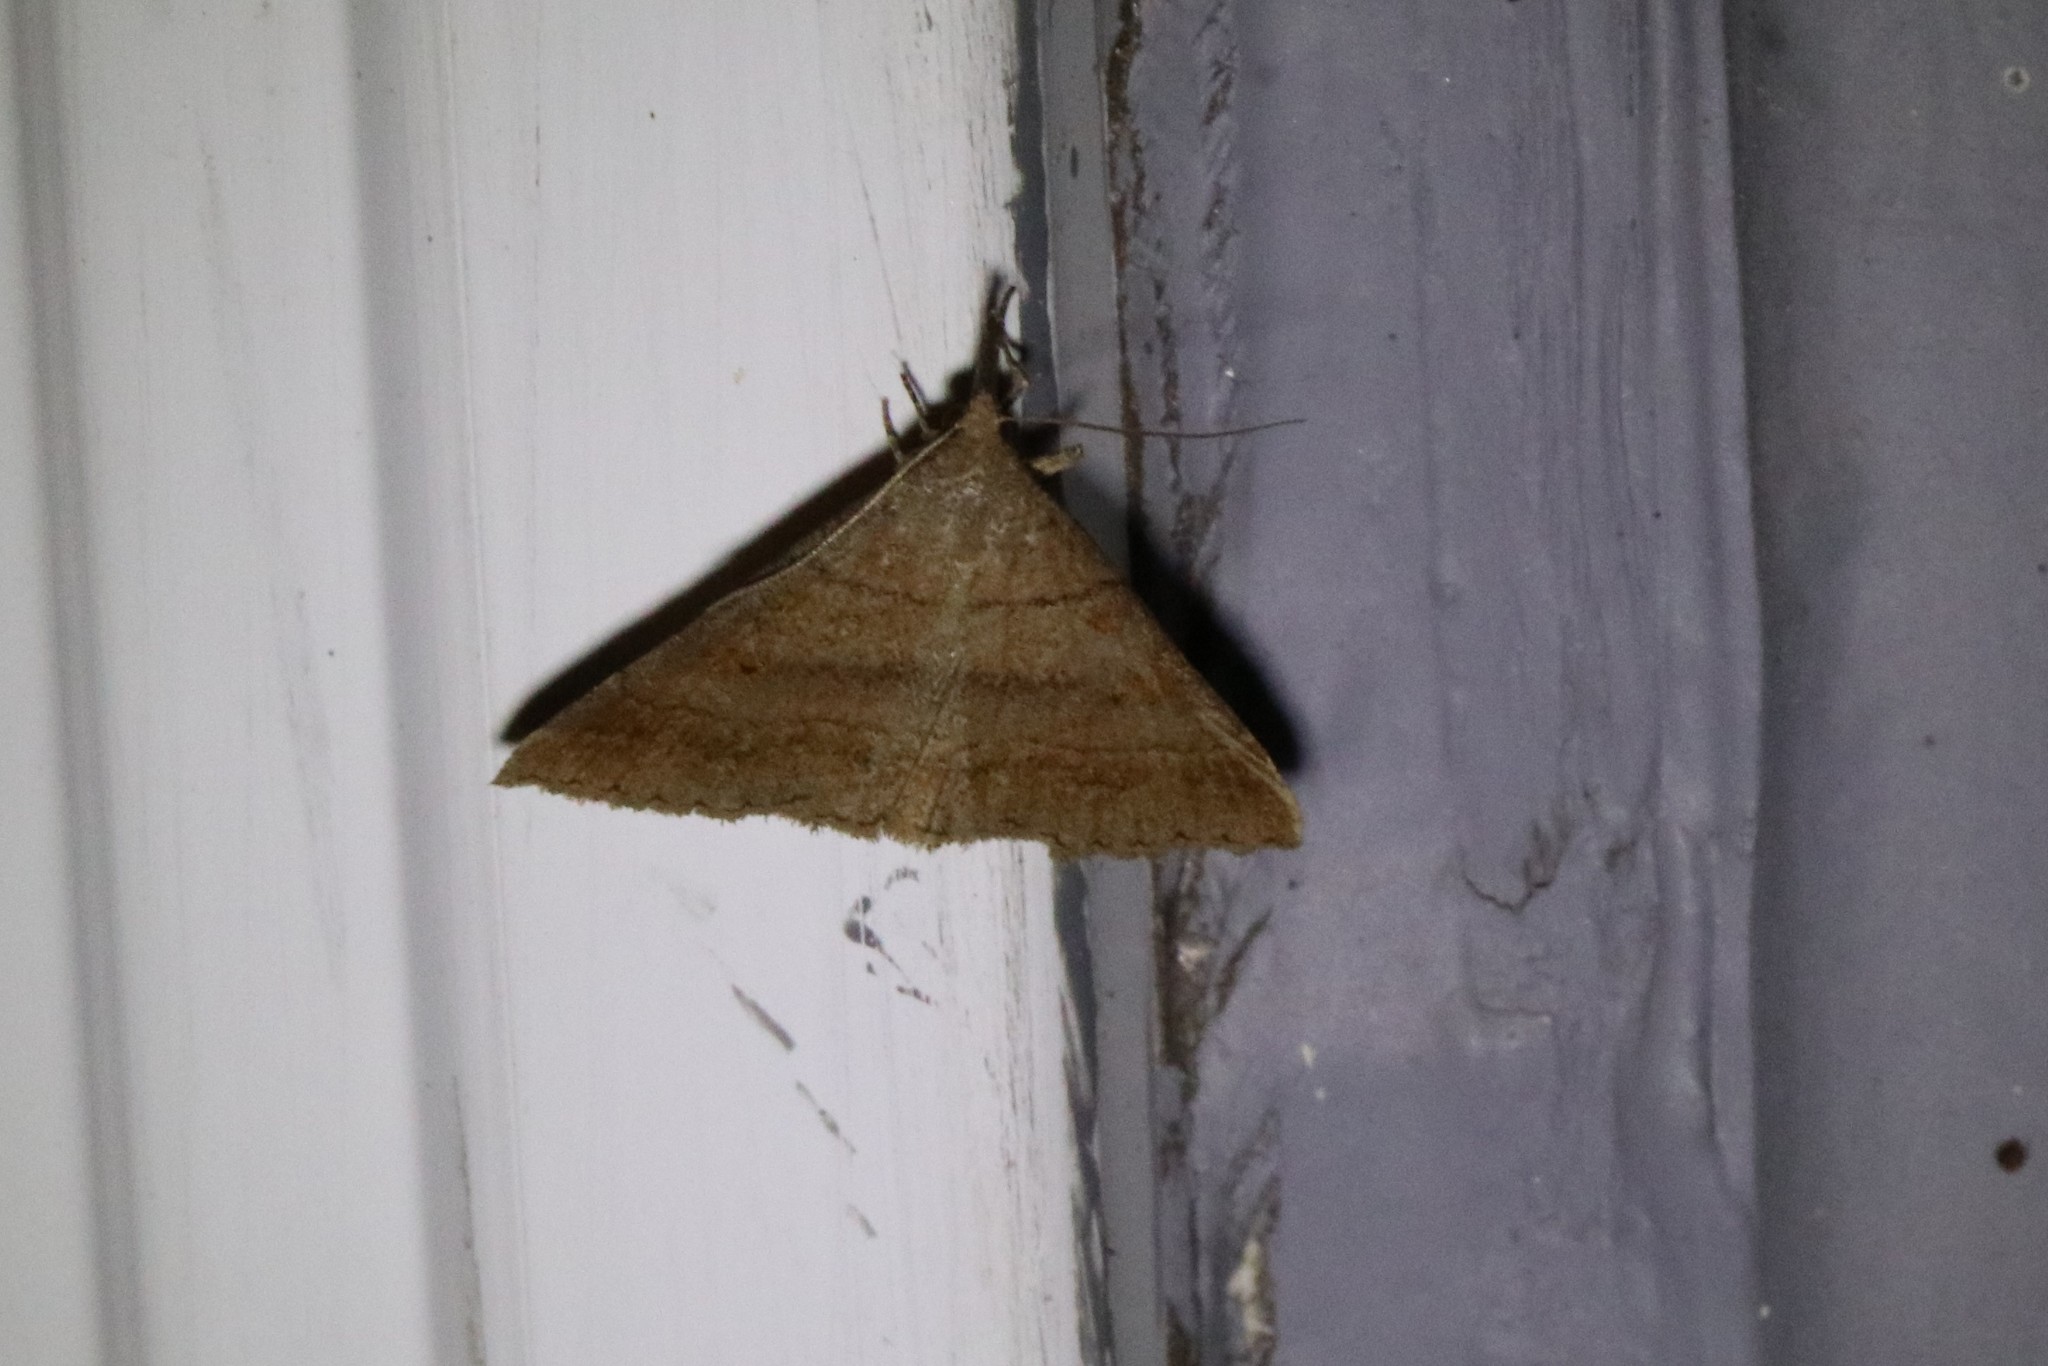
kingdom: Animalia
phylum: Arthropoda
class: Insecta
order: Lepidoptera
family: Erebidae
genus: Renia
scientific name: Renia flavipunctalis
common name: Yellow-spotted renia moth
